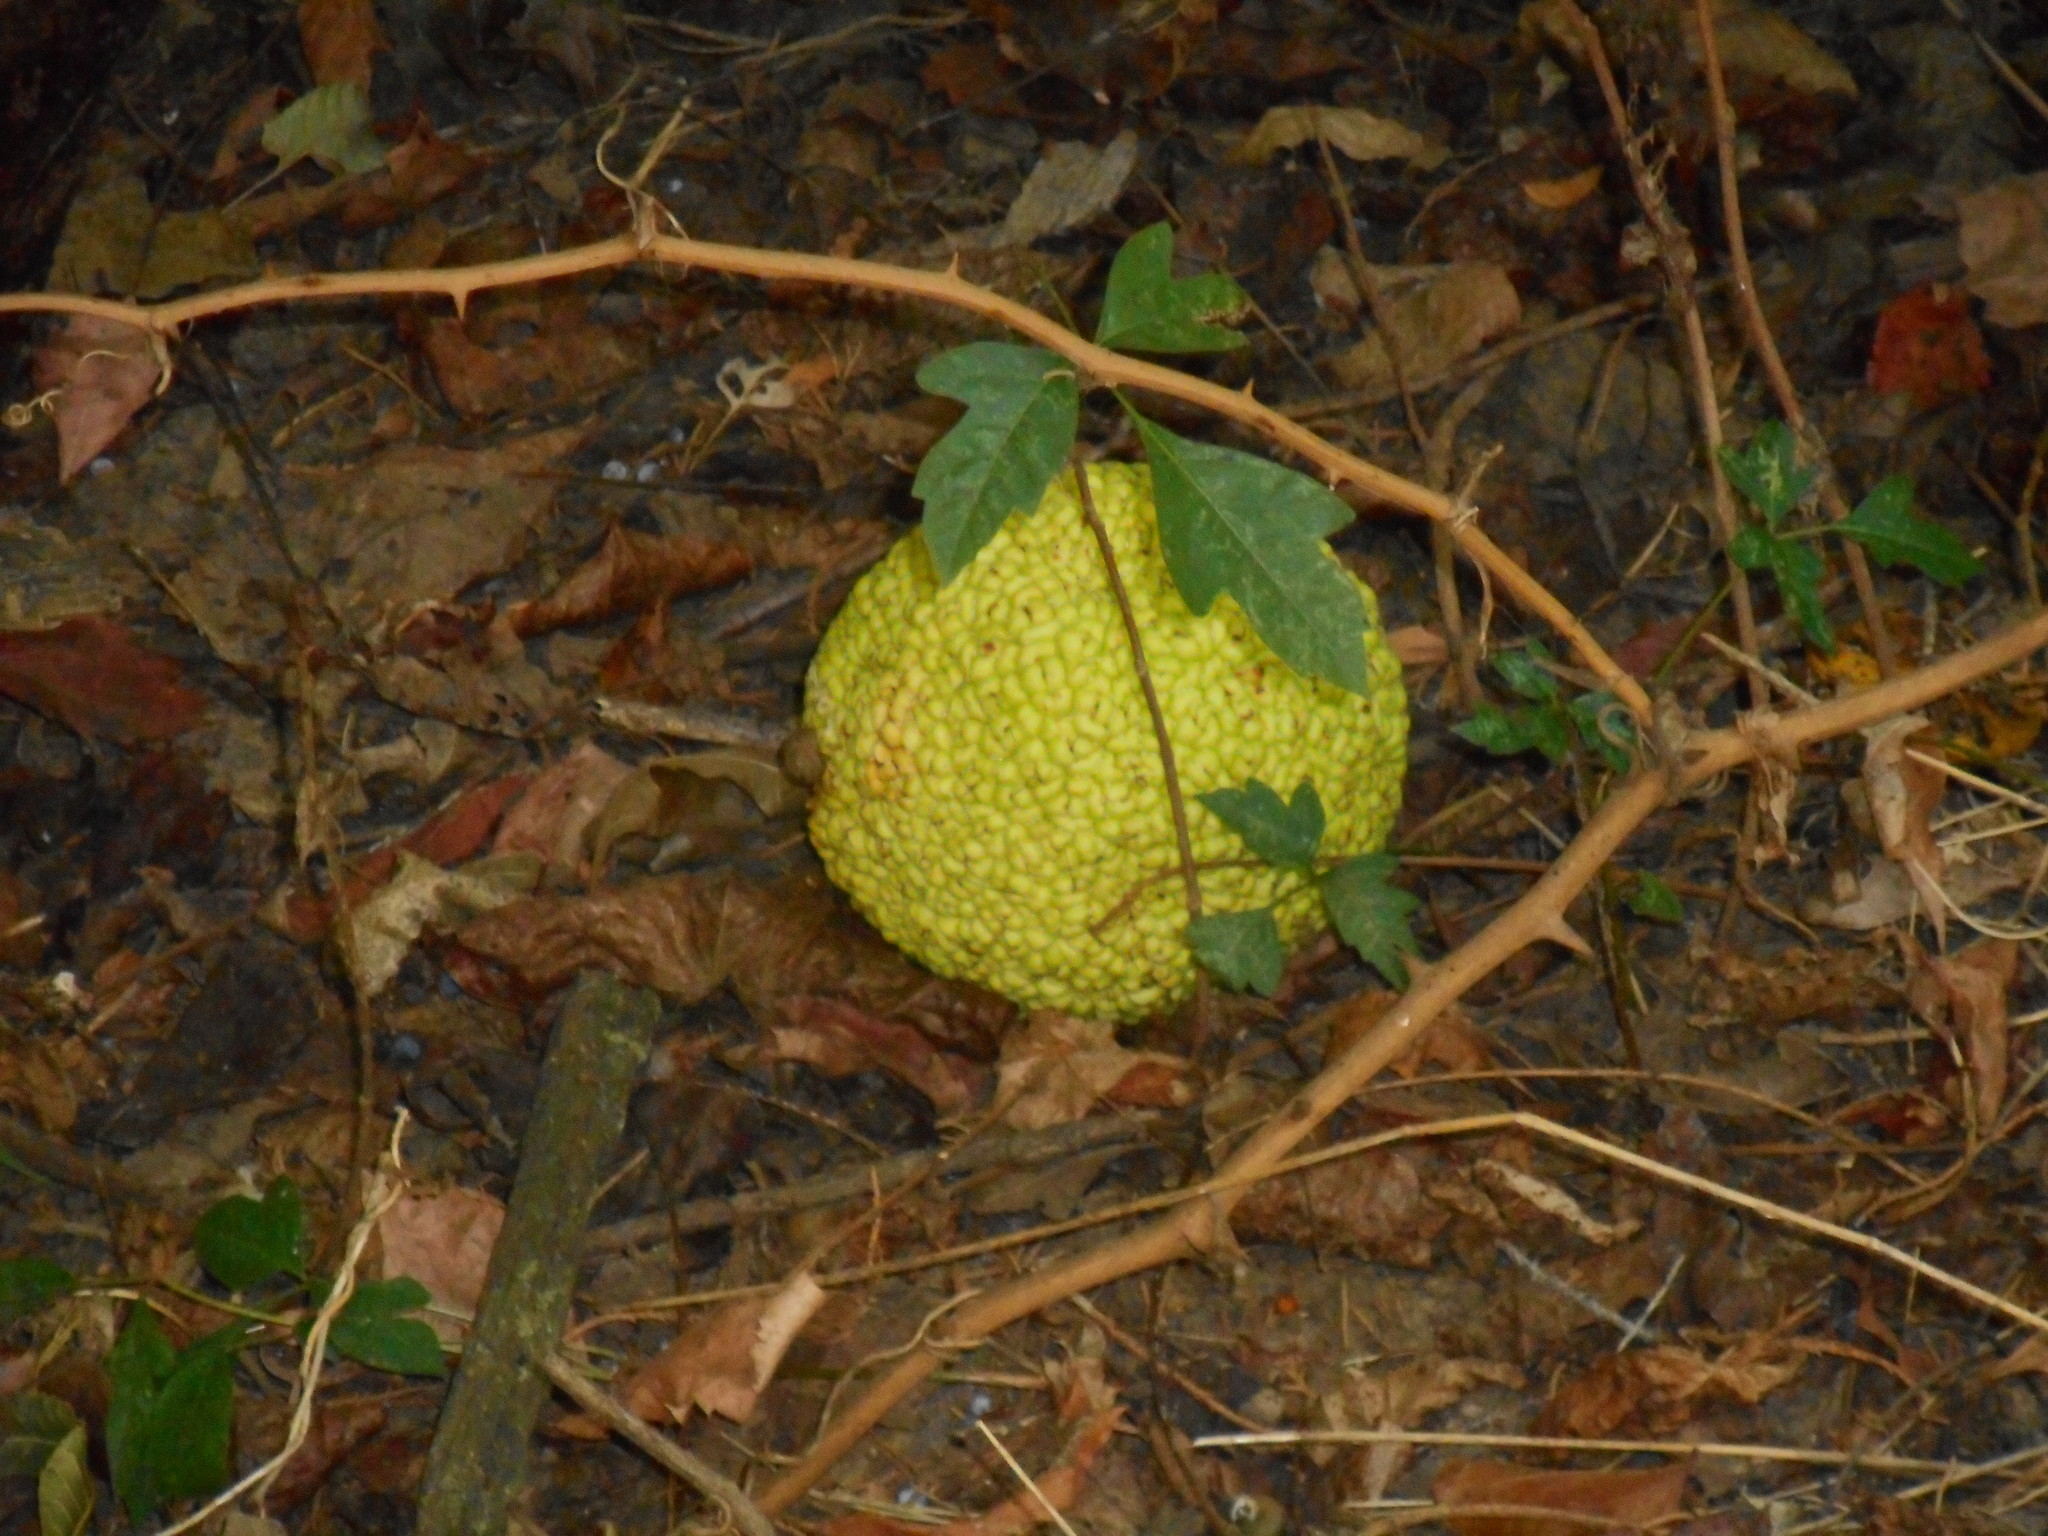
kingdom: Plantae
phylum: Tracheophyta
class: Magnoliopsida
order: Rosales
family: Moraceae
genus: Maclura
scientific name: Maclura pomifera
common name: Osage-orange
